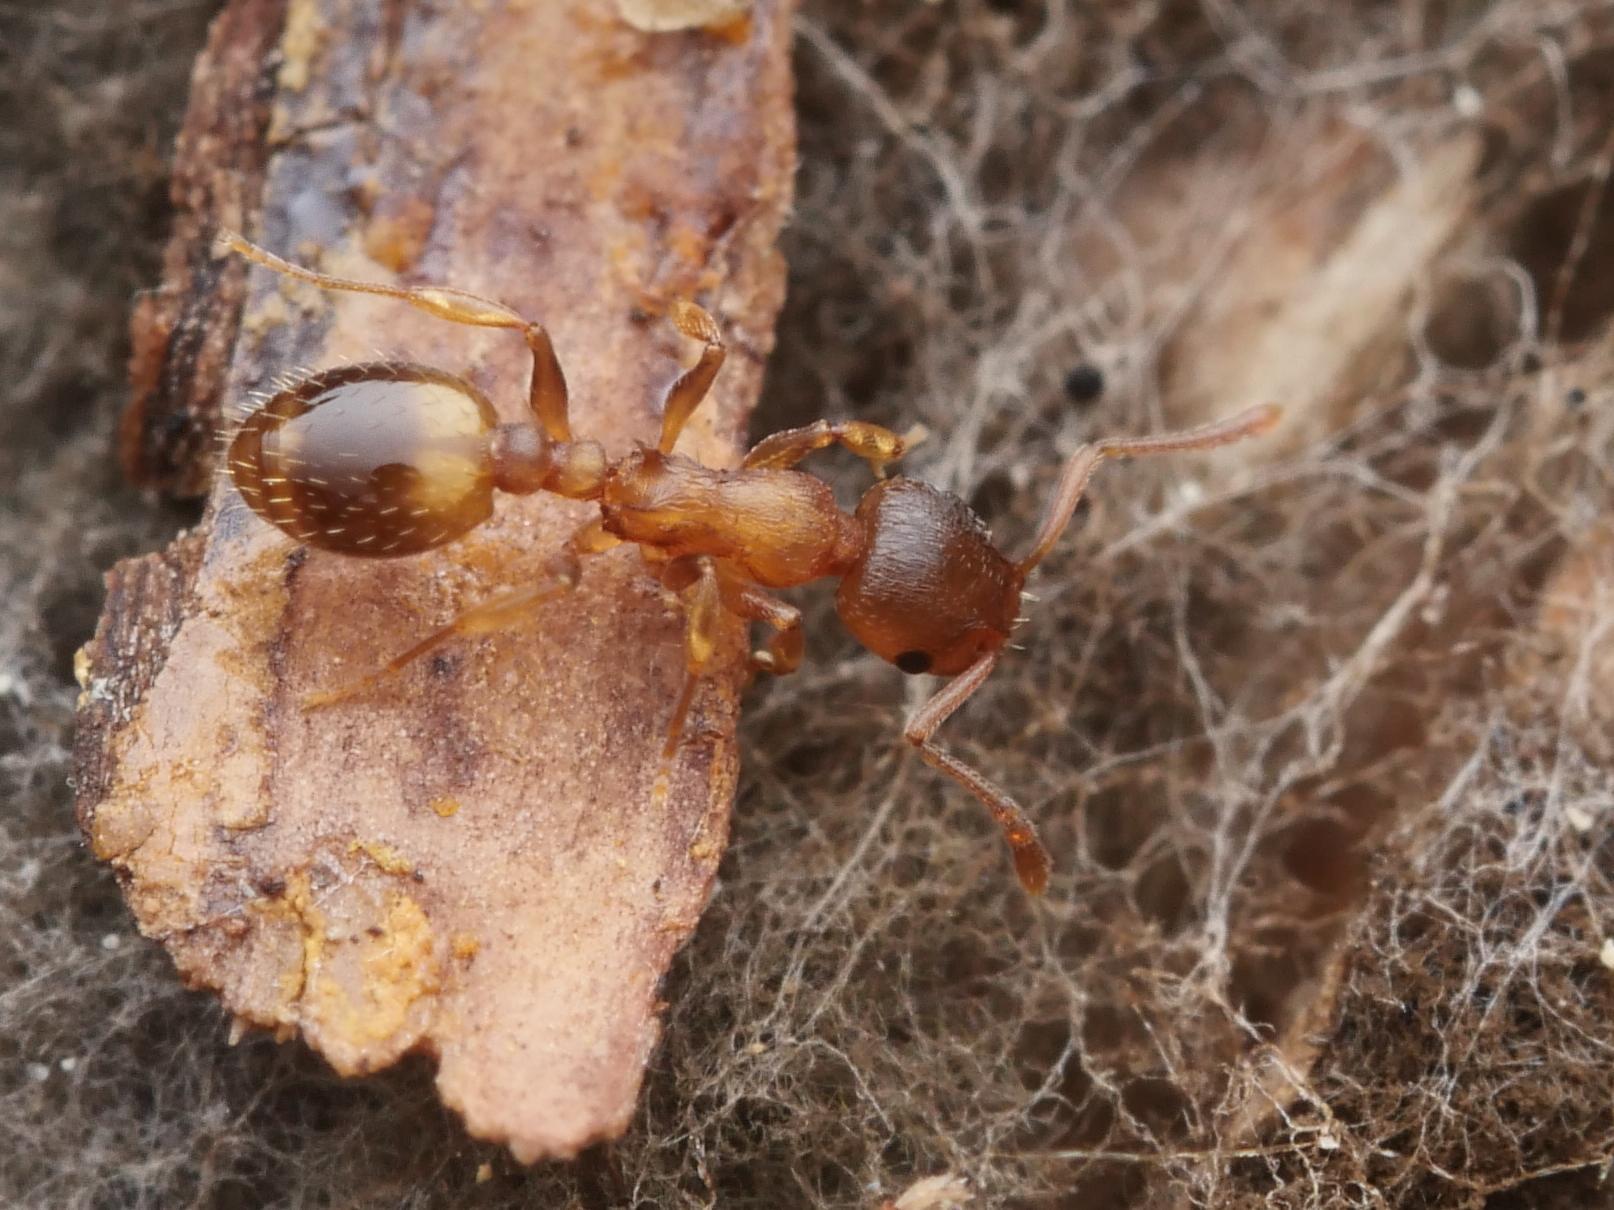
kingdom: Animalia
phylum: Arthropoda
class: Insecta
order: Hymenoptera
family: Formicidae
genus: Temnothorax
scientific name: Temnothorax crassispinus
